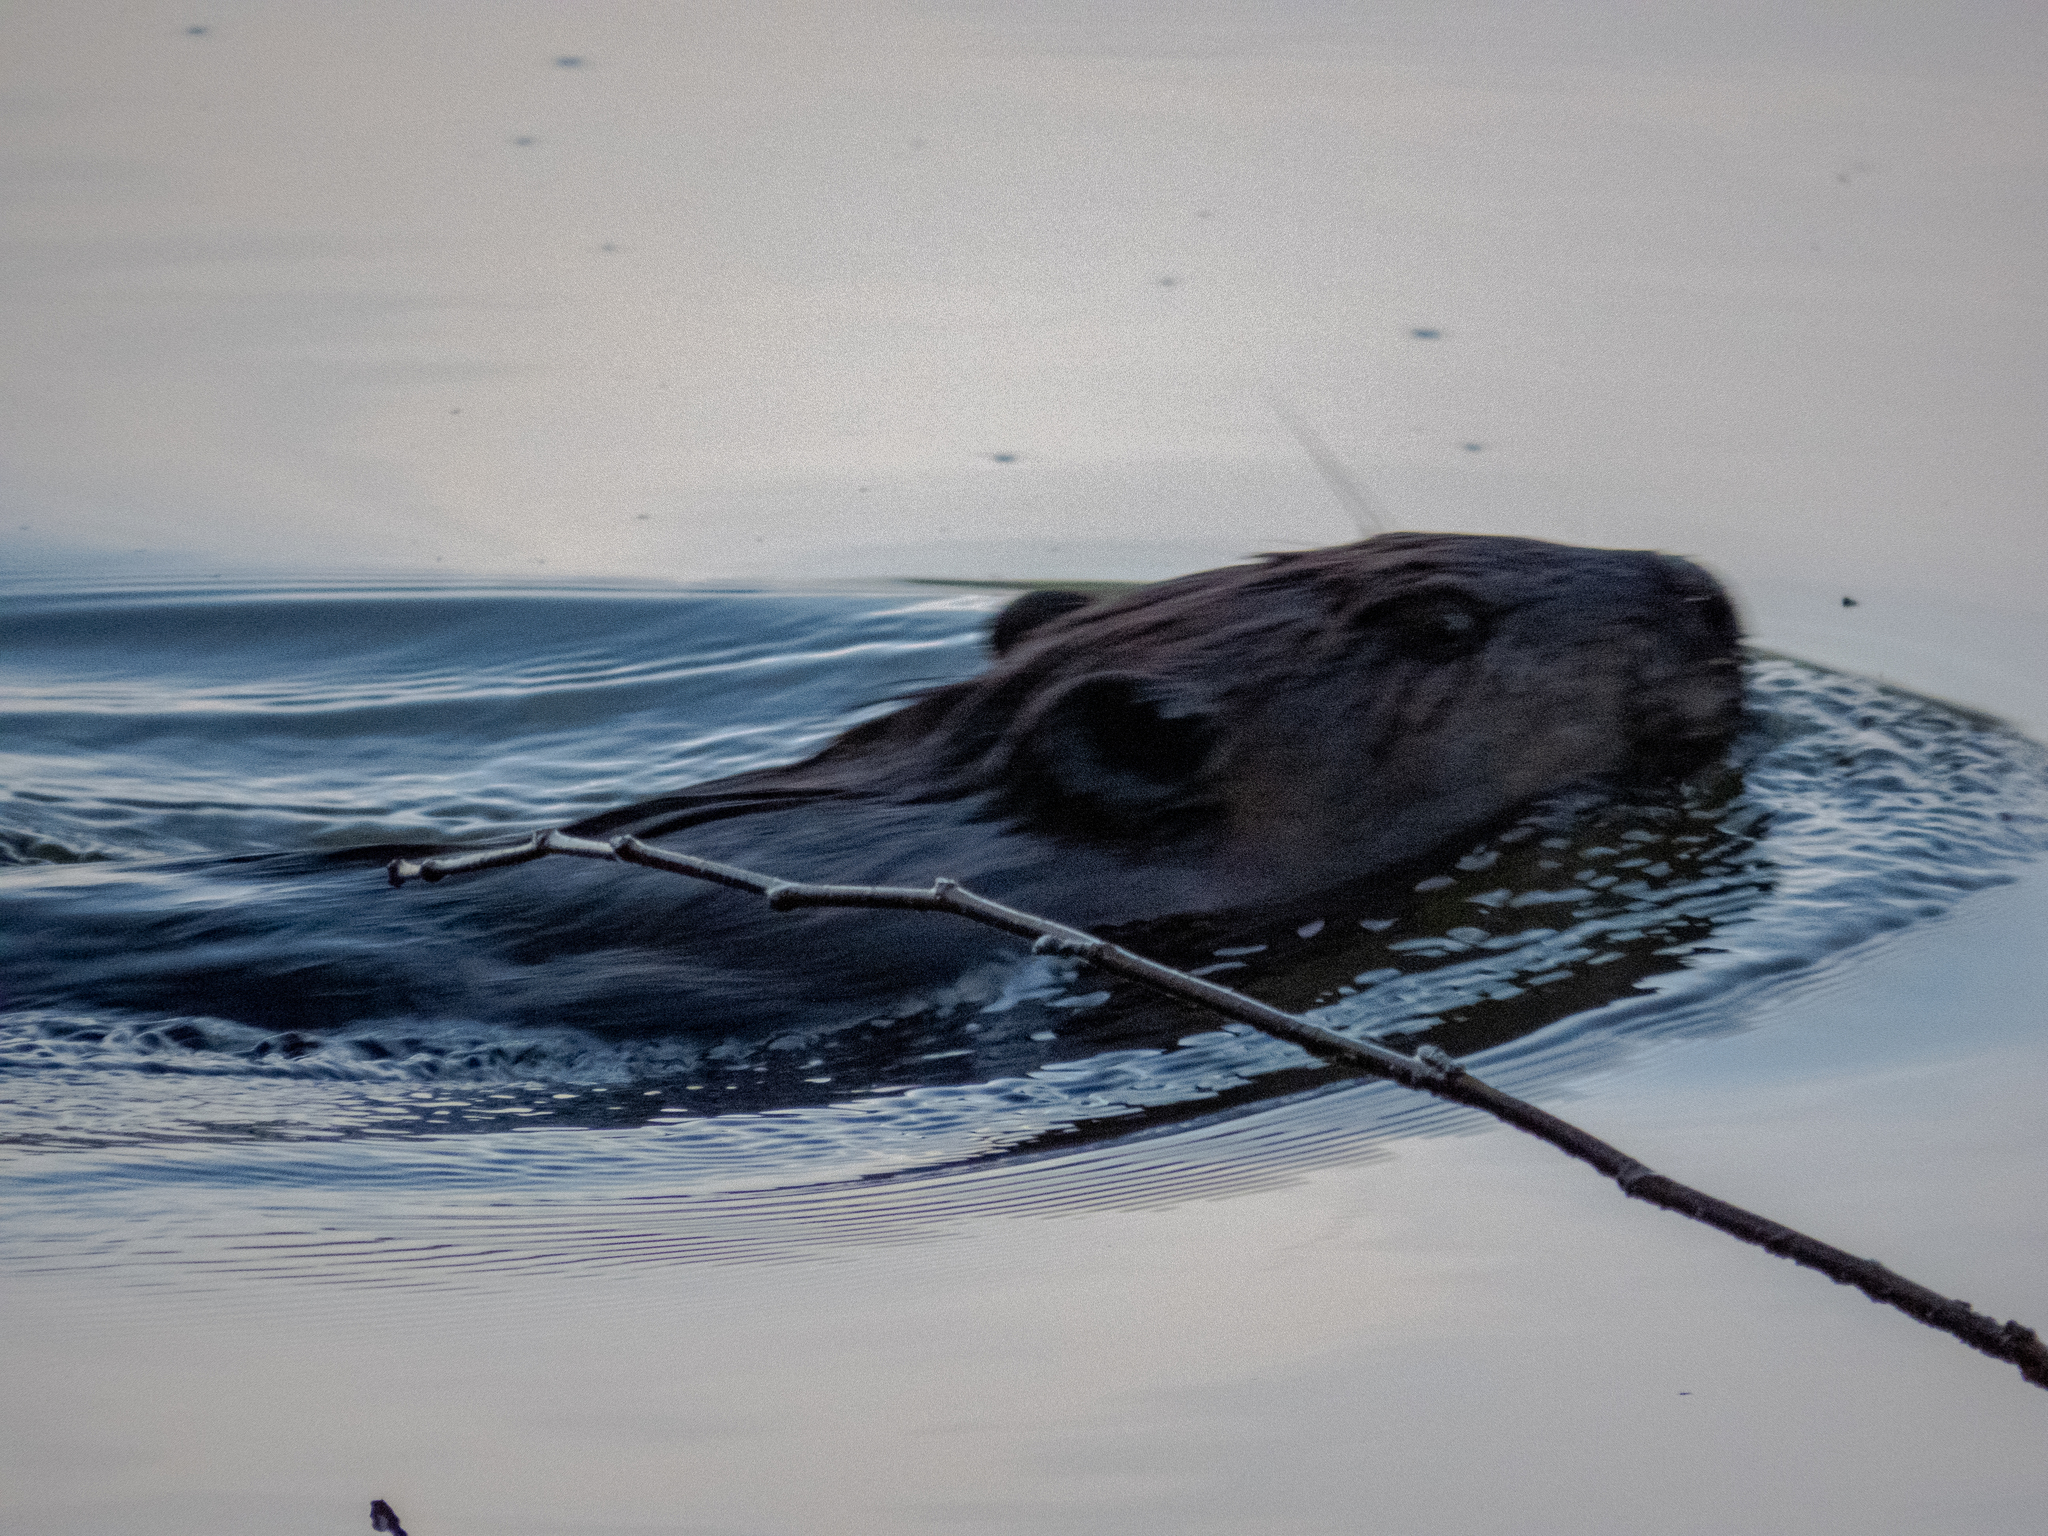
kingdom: Animalia
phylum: Chordata
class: Mammalia
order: Rodentia
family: Castoridae
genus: Castor
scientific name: Castor canadensis
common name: American beaver
